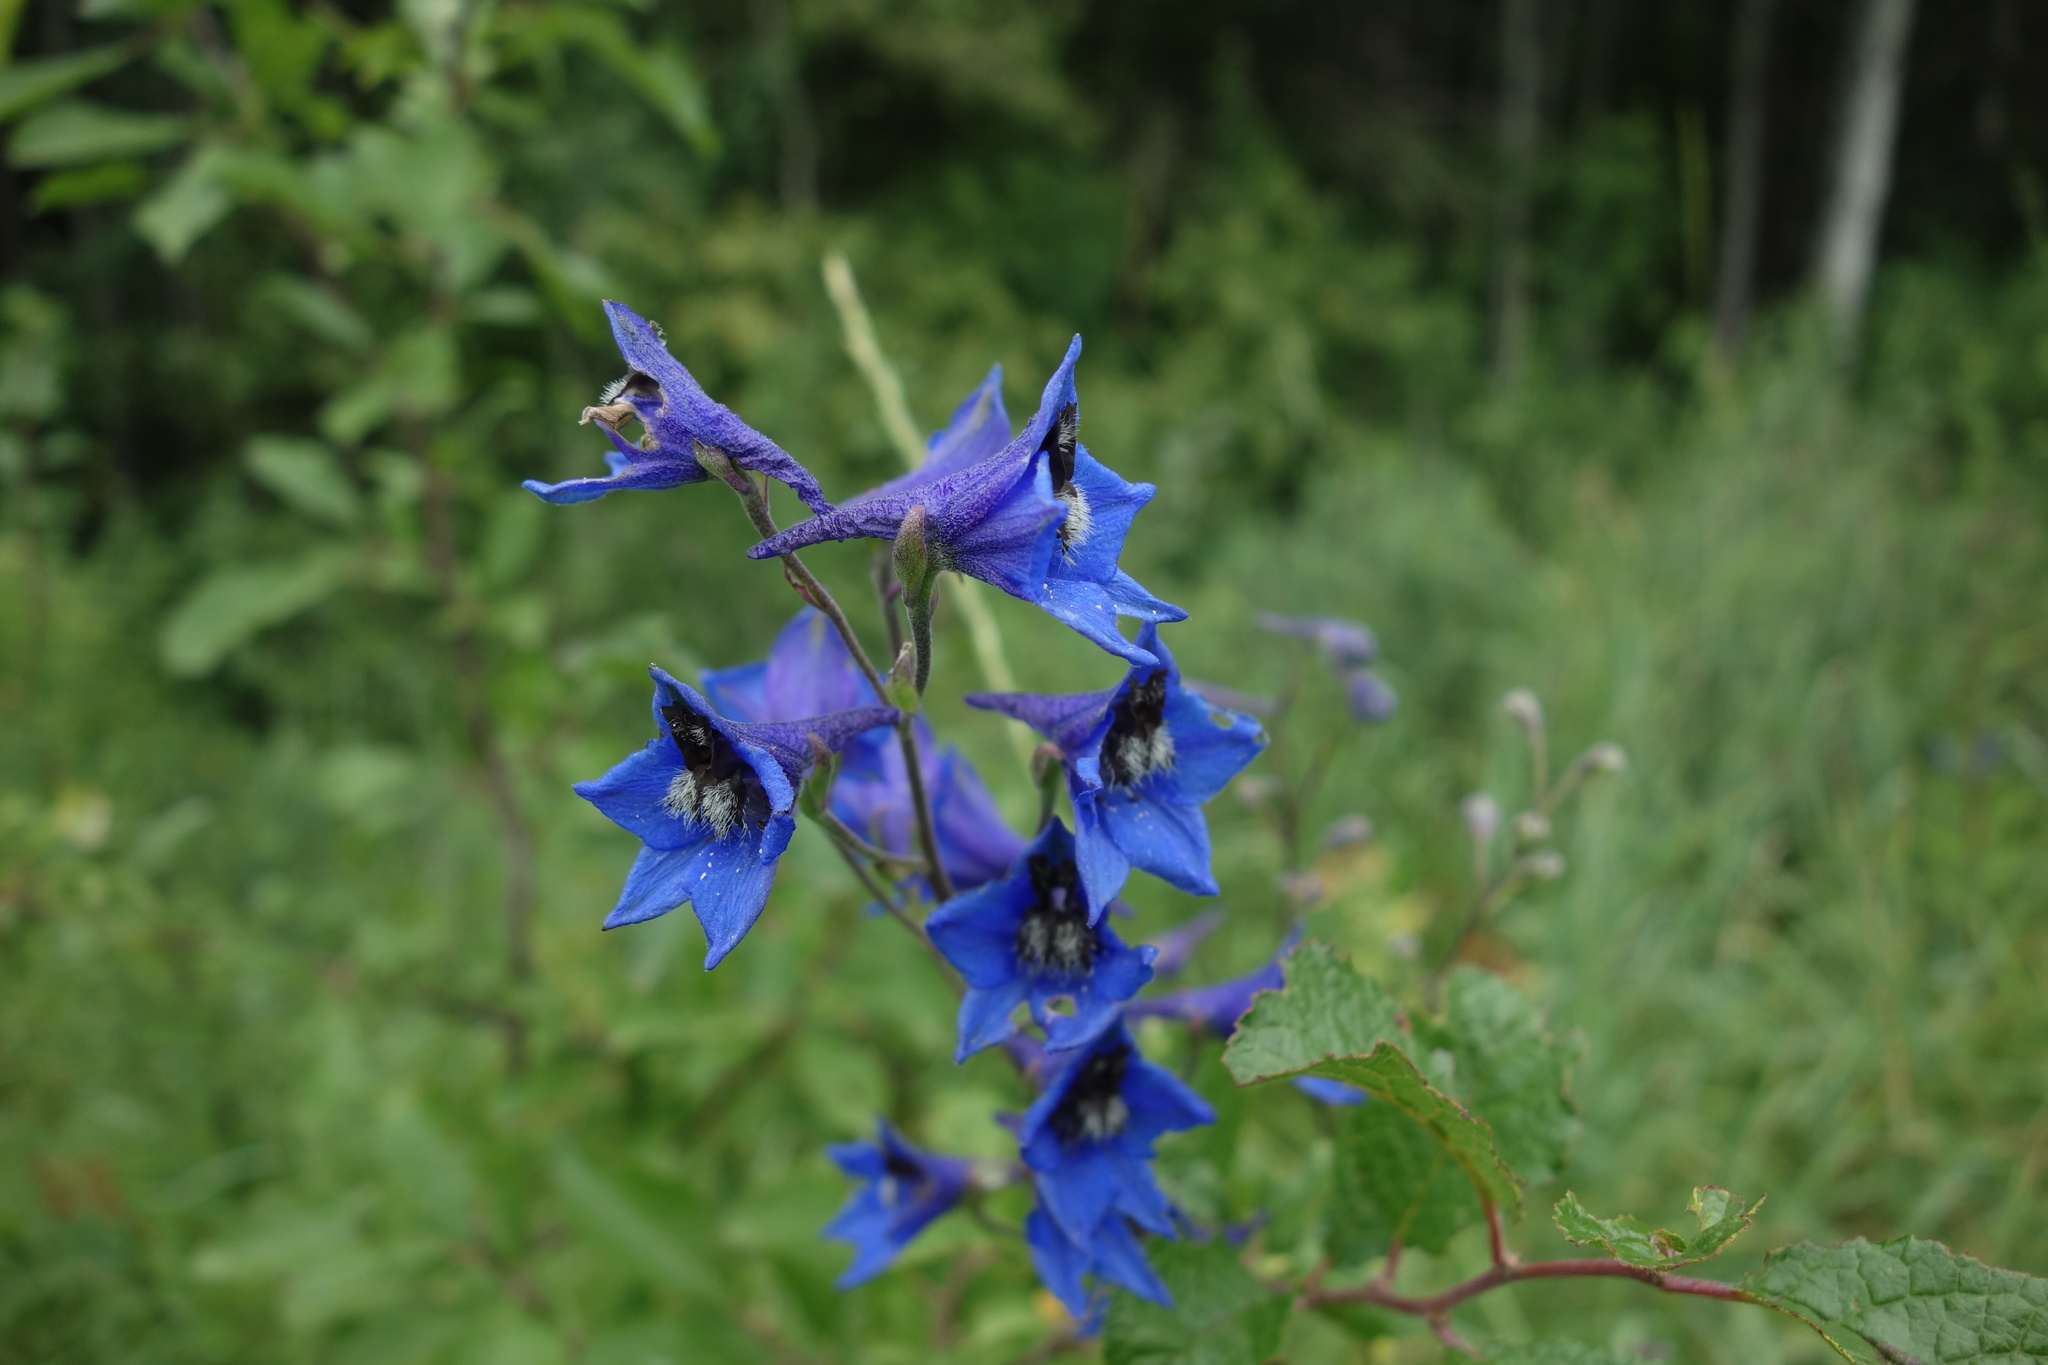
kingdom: Plantae
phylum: Tracheophyta
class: Magnoliopsida
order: Ranunculales
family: Ranunculaceae
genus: Delphinium
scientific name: Delphinium cuneatum
